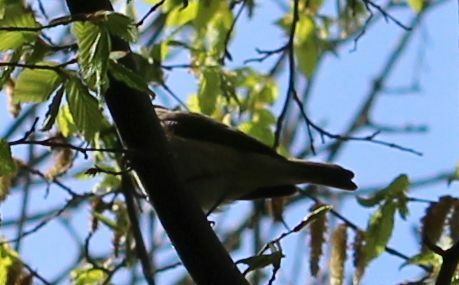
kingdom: Animalia
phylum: Chordata
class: Aves
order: Passeriformes
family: Sylviidae
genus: Sylvia
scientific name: Sylvia atricapilla
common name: Eurasian blackcap
